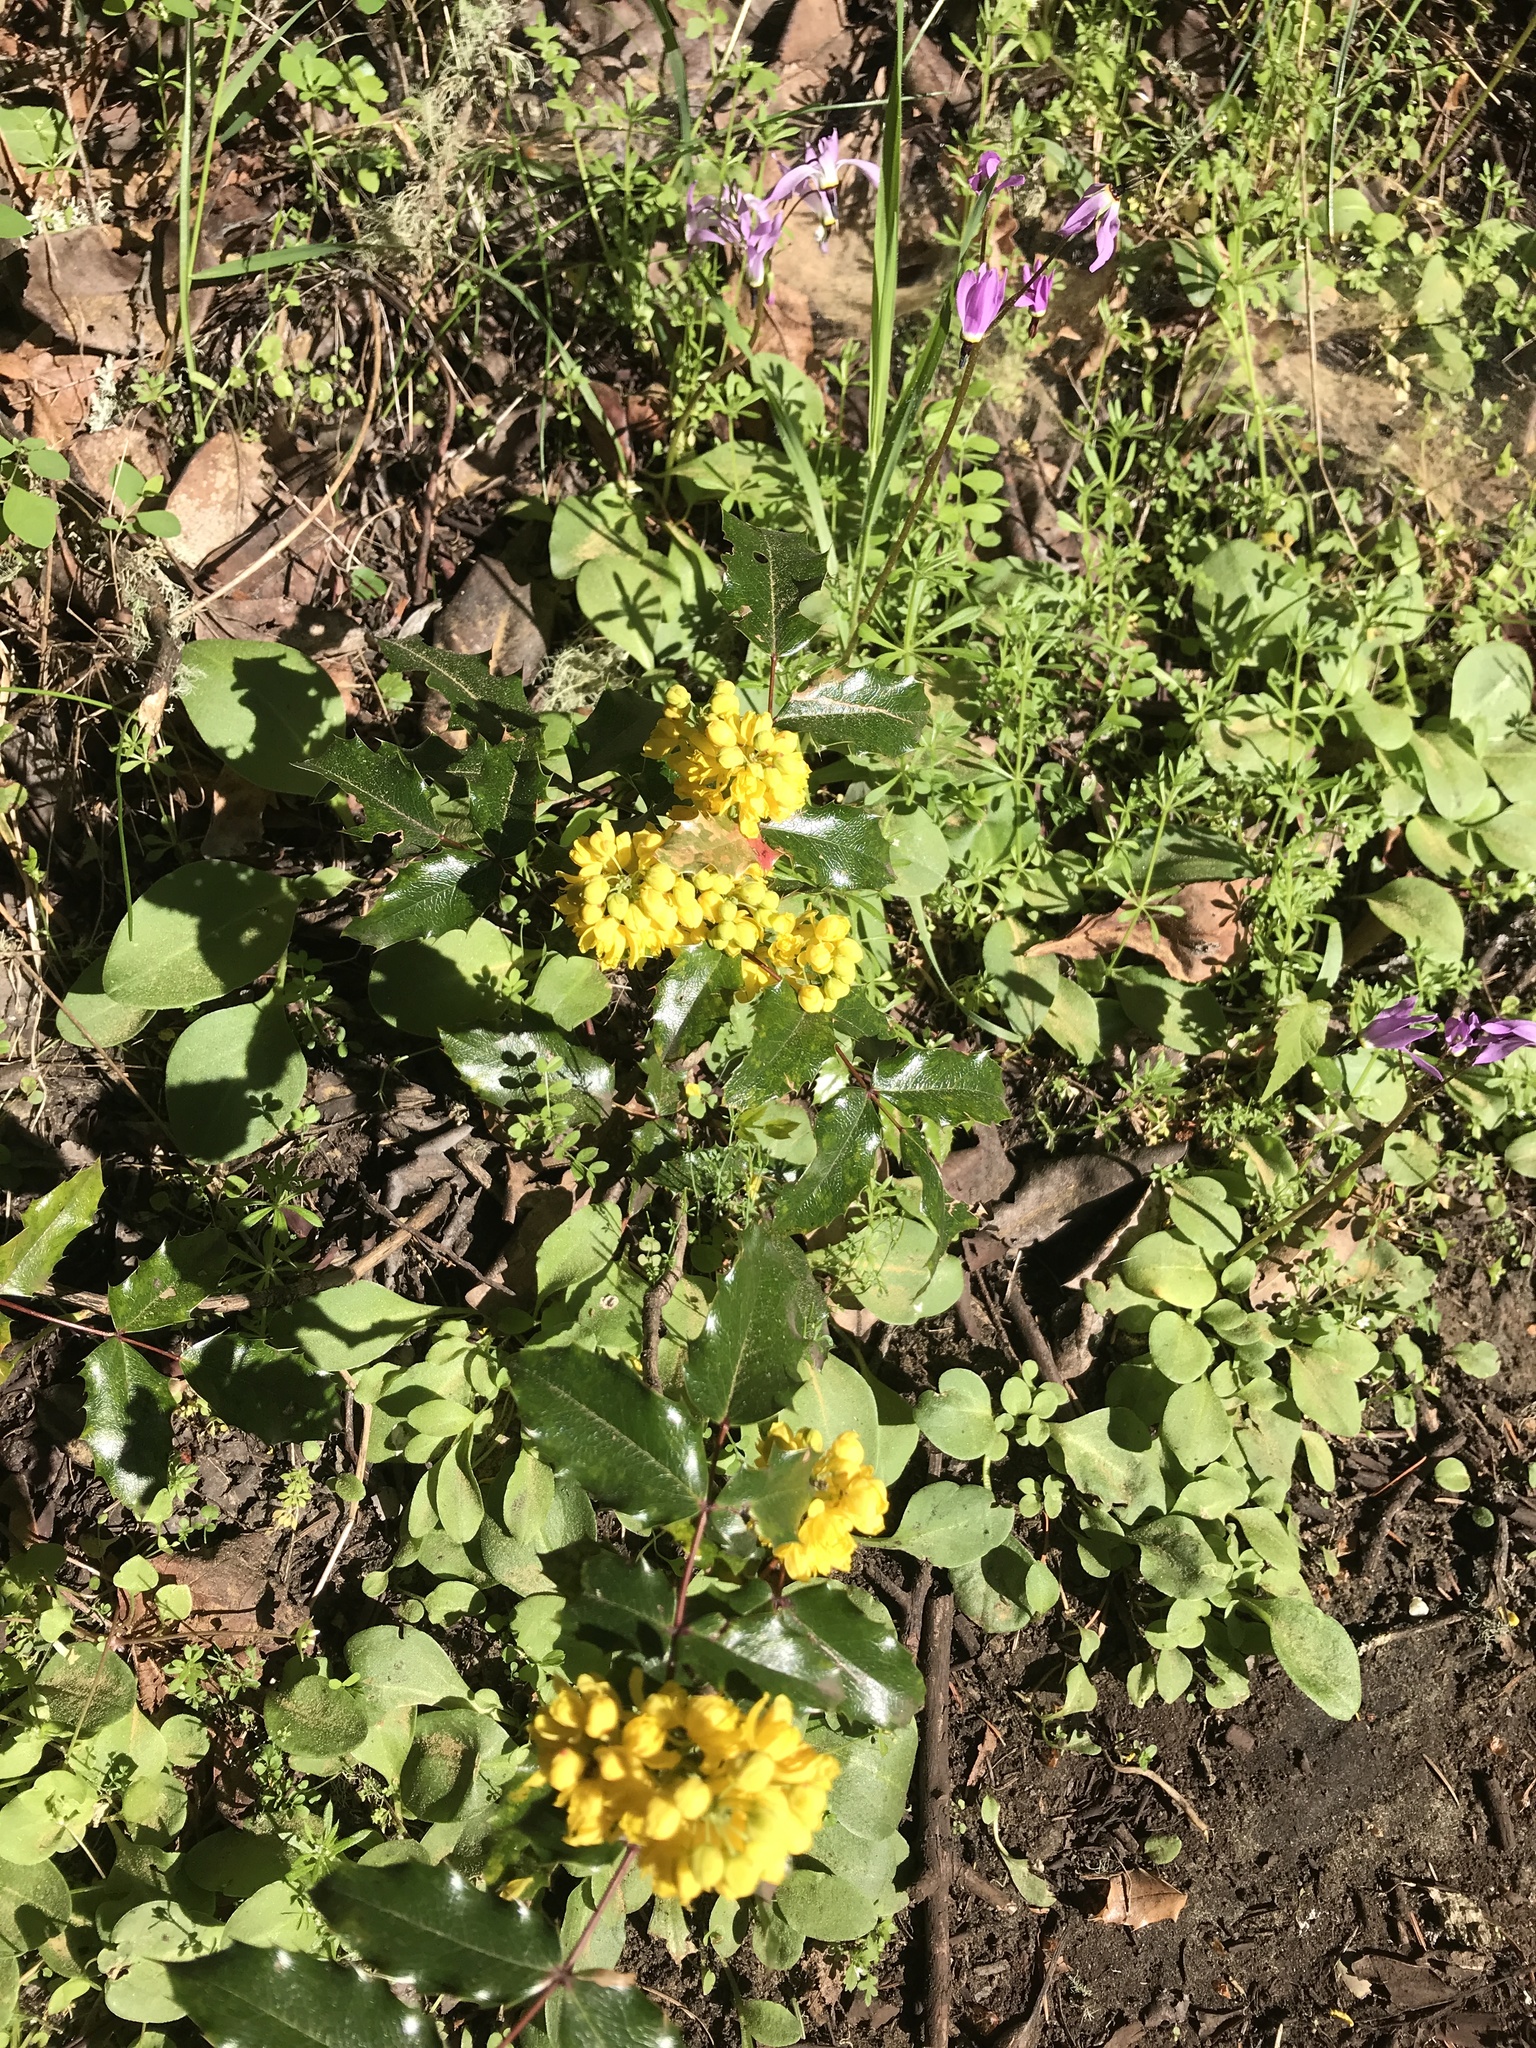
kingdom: Plantae
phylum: Tracheophyta
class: Magnoliopsida
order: Ranunculales
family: Berberidaceae
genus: Mahonia
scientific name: Mahonia aquifolium
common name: Oregon-grape
